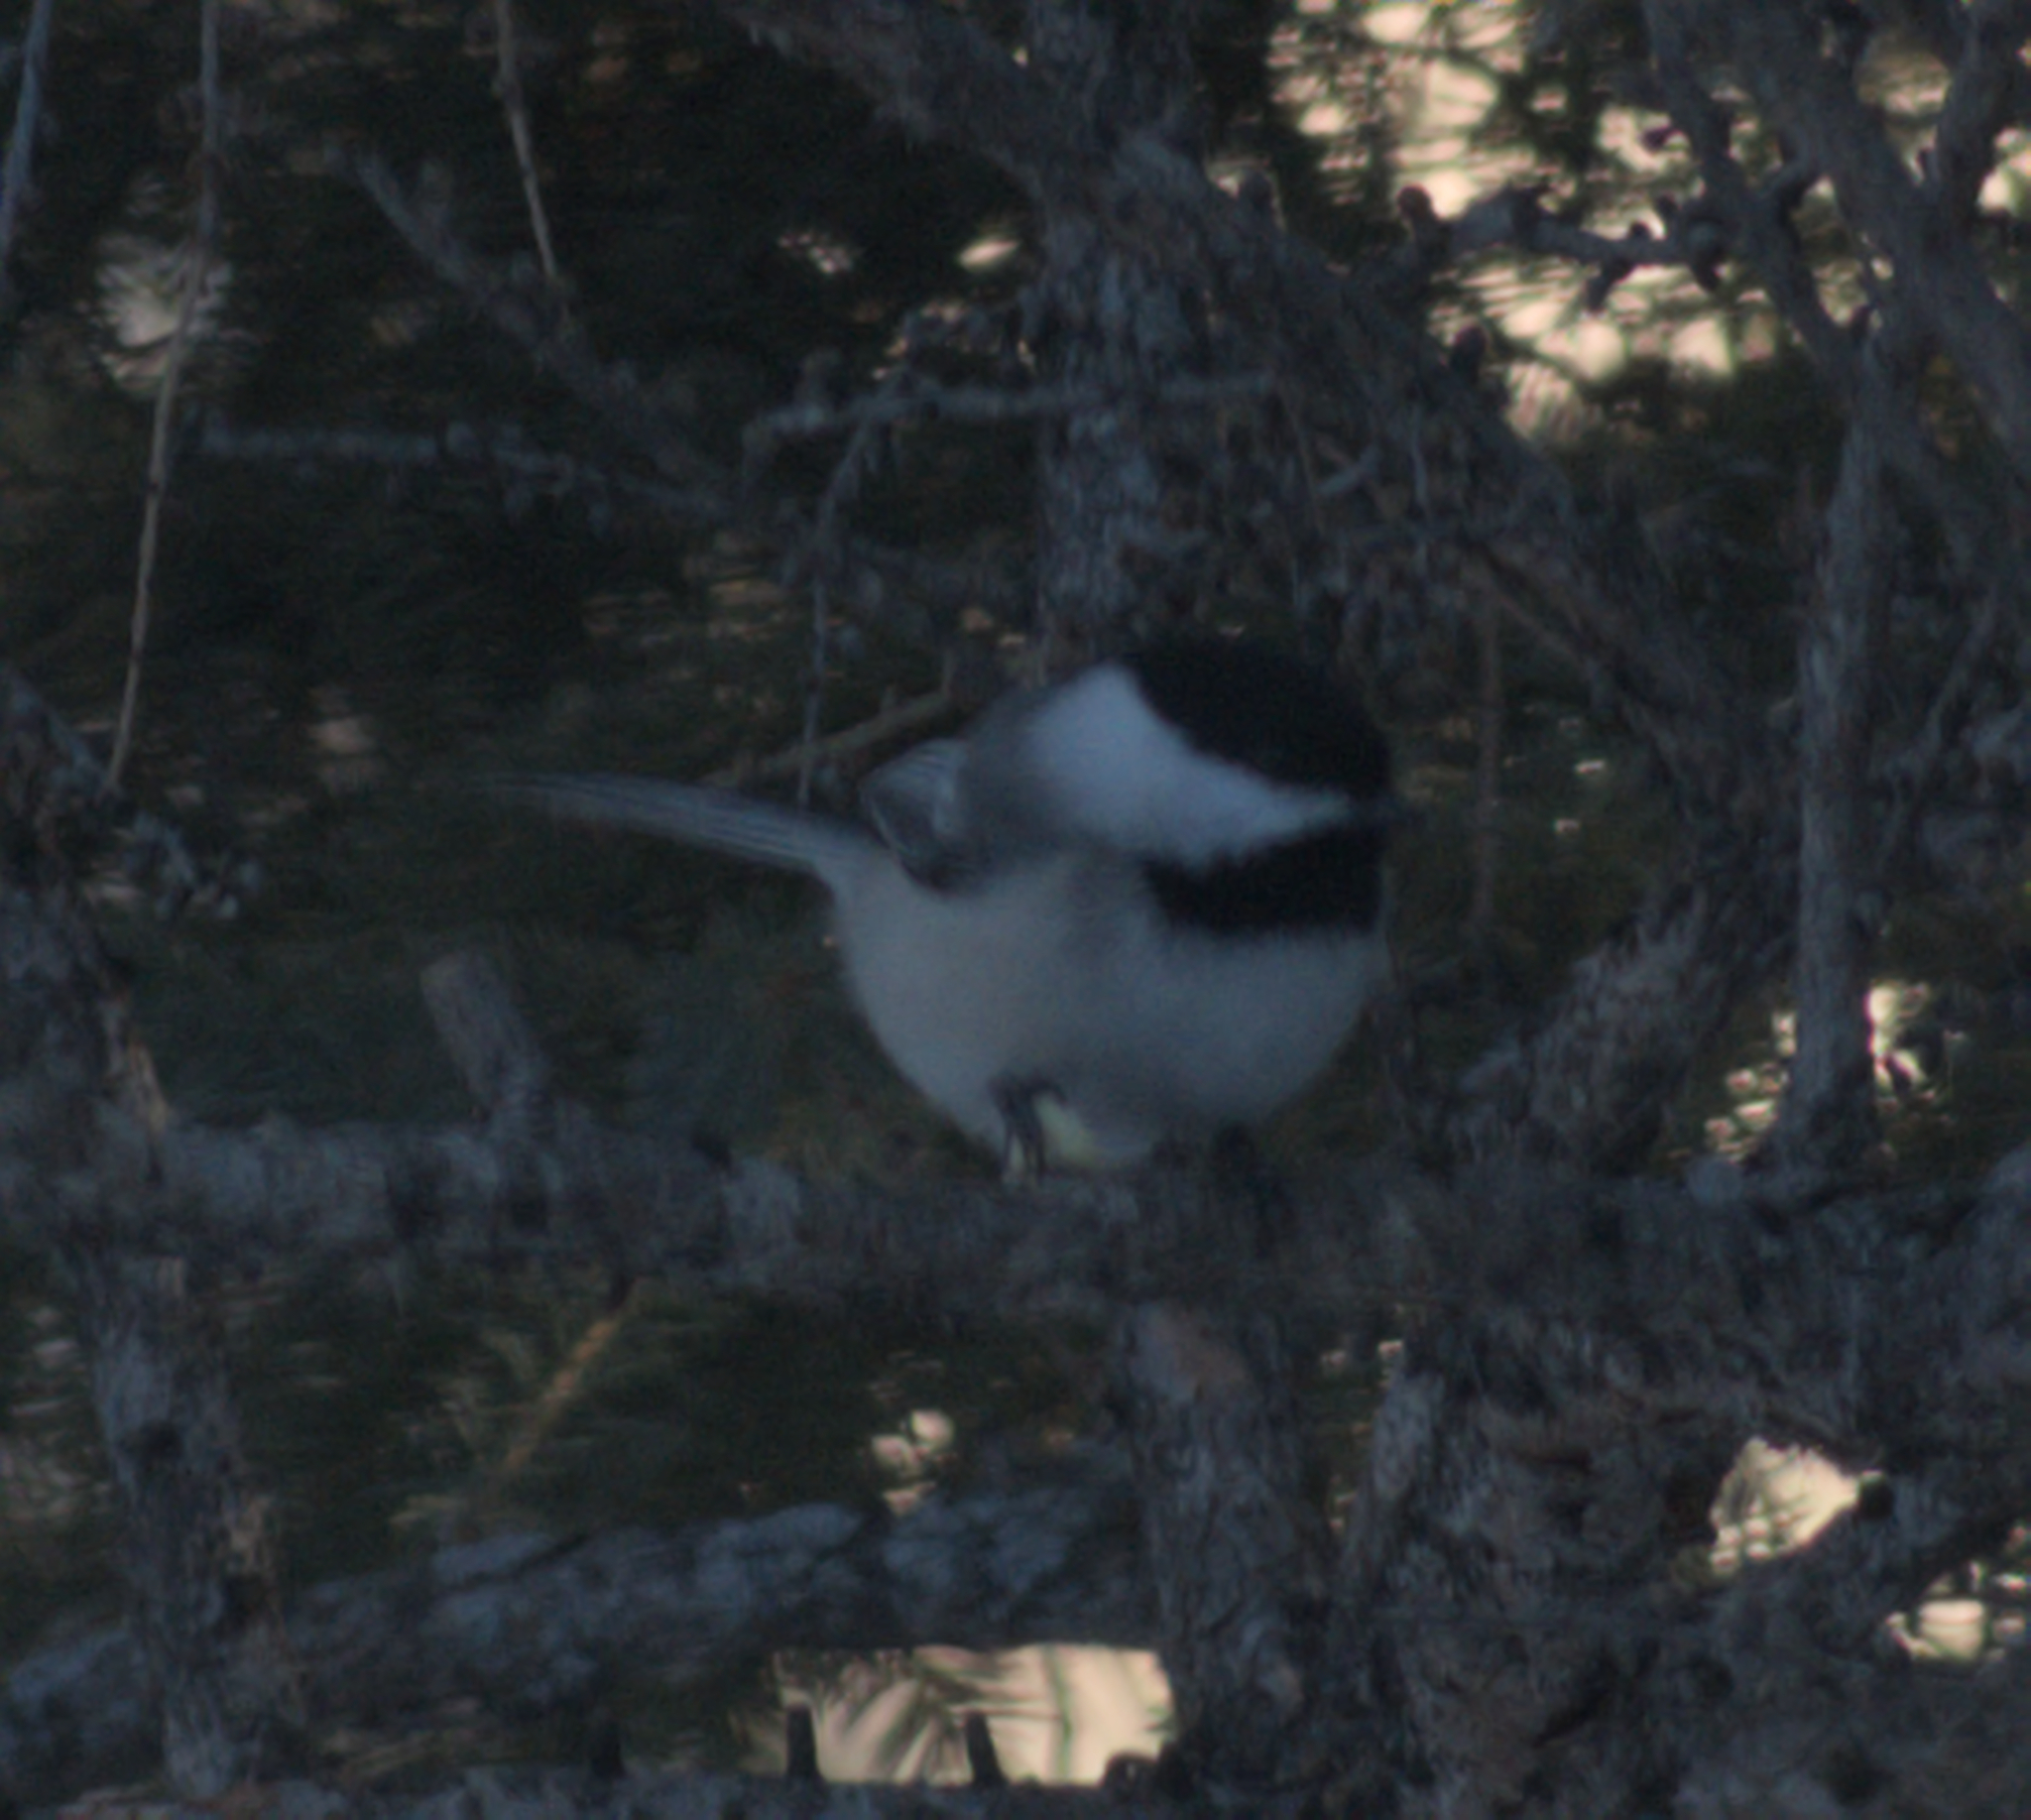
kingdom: Animalia
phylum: Chordata
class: Aves
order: Passeriformes
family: Paridae
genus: Poecile
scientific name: Poecile atricapillus
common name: Black-capped chickadee
